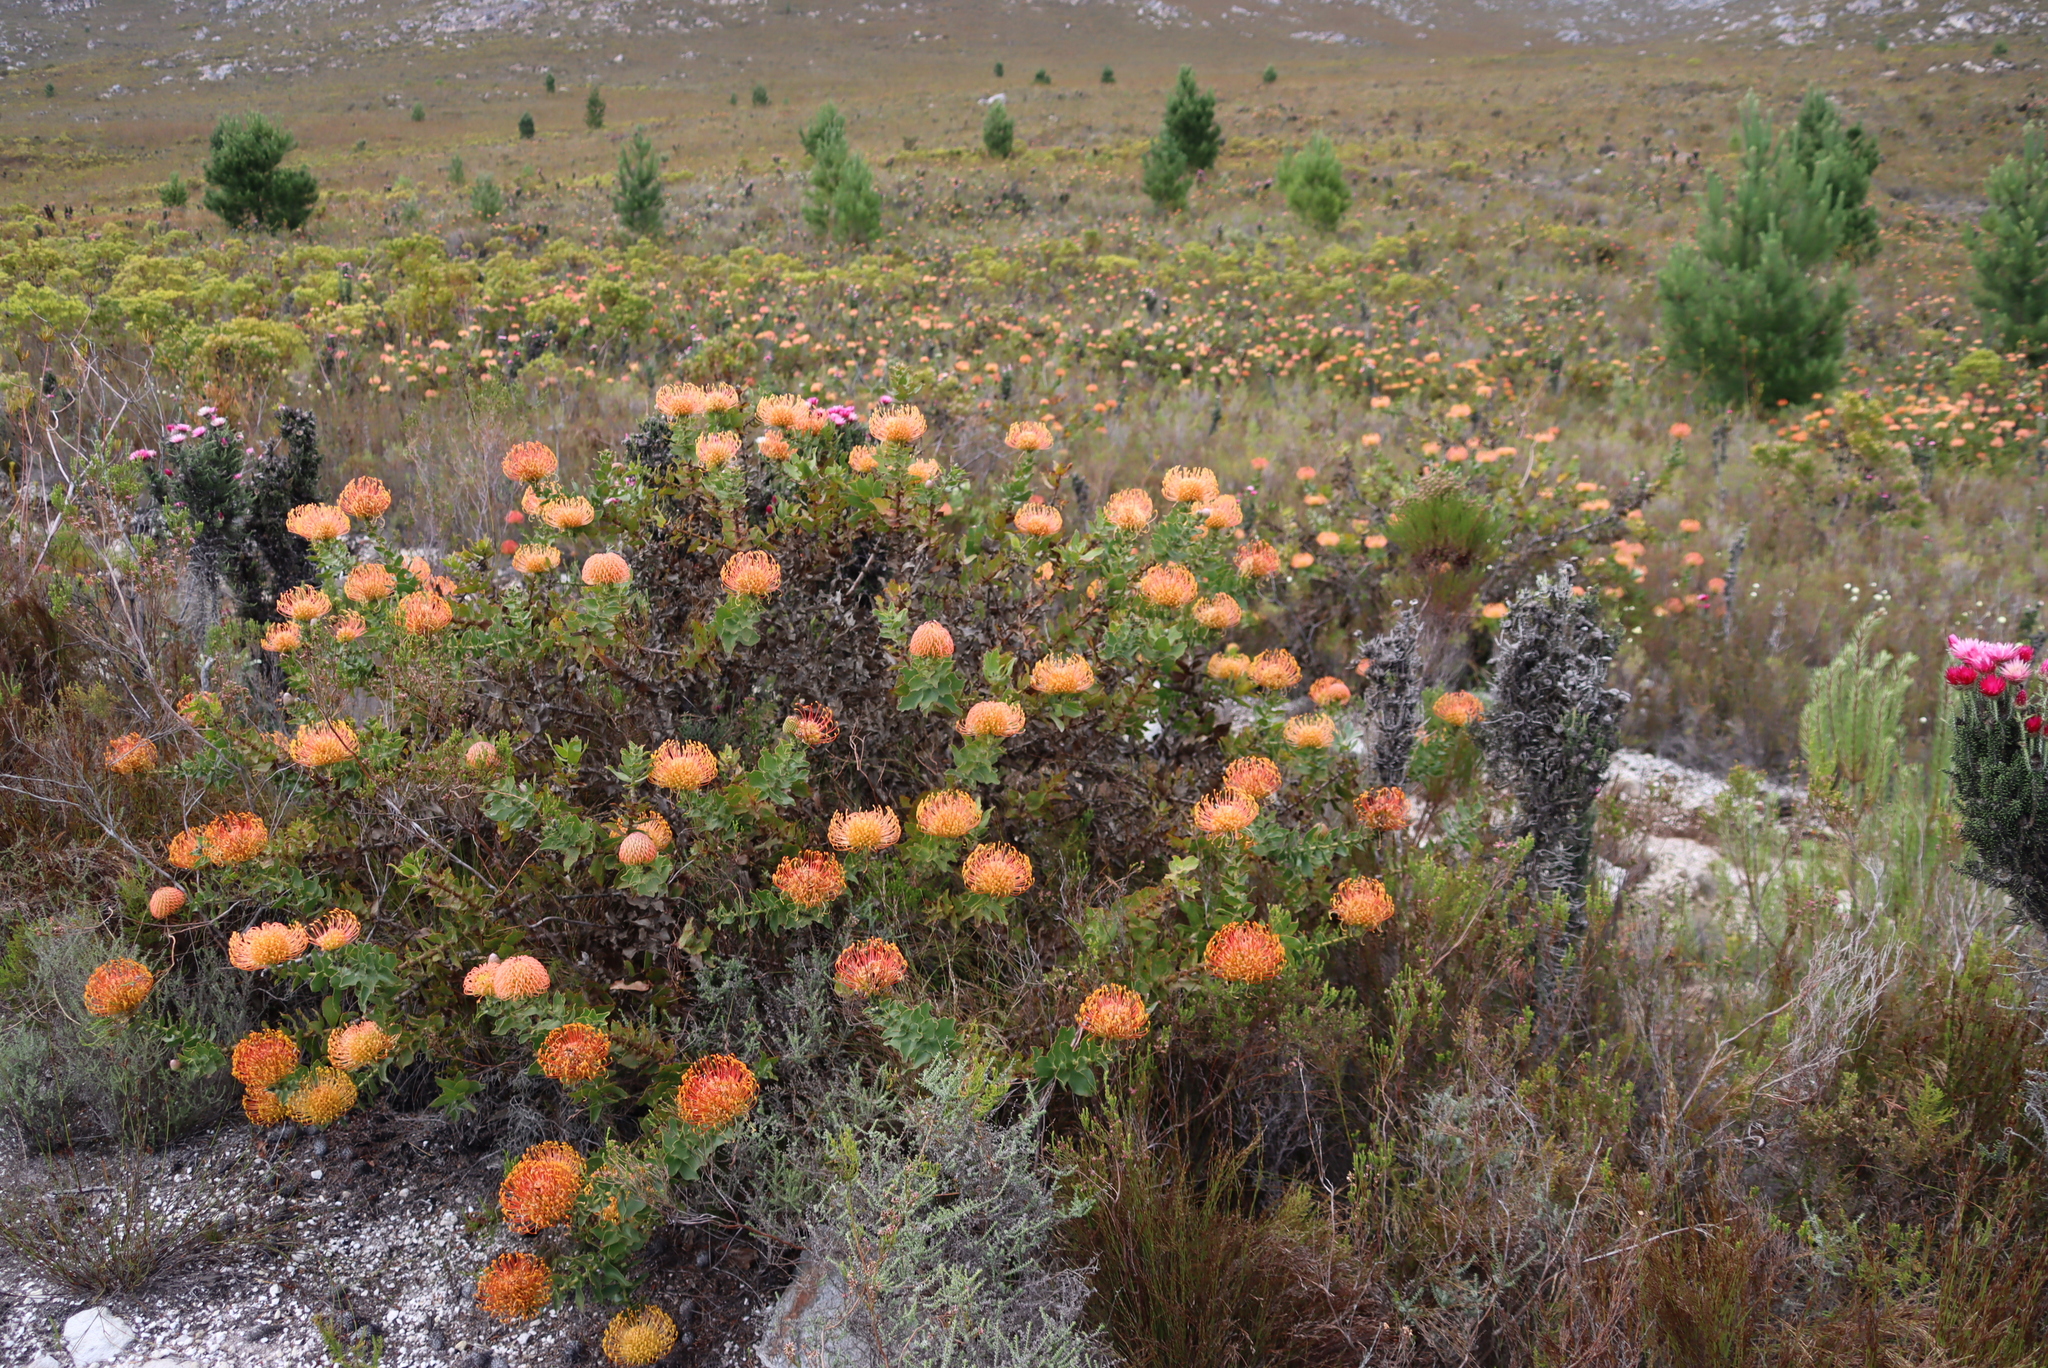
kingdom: Plantae
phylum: Tracheophyta
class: Magnoliopsida
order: Proteales
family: Proteaceae
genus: Leucospermum
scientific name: Leucospermum cordifolium
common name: Red pincushion-protea
